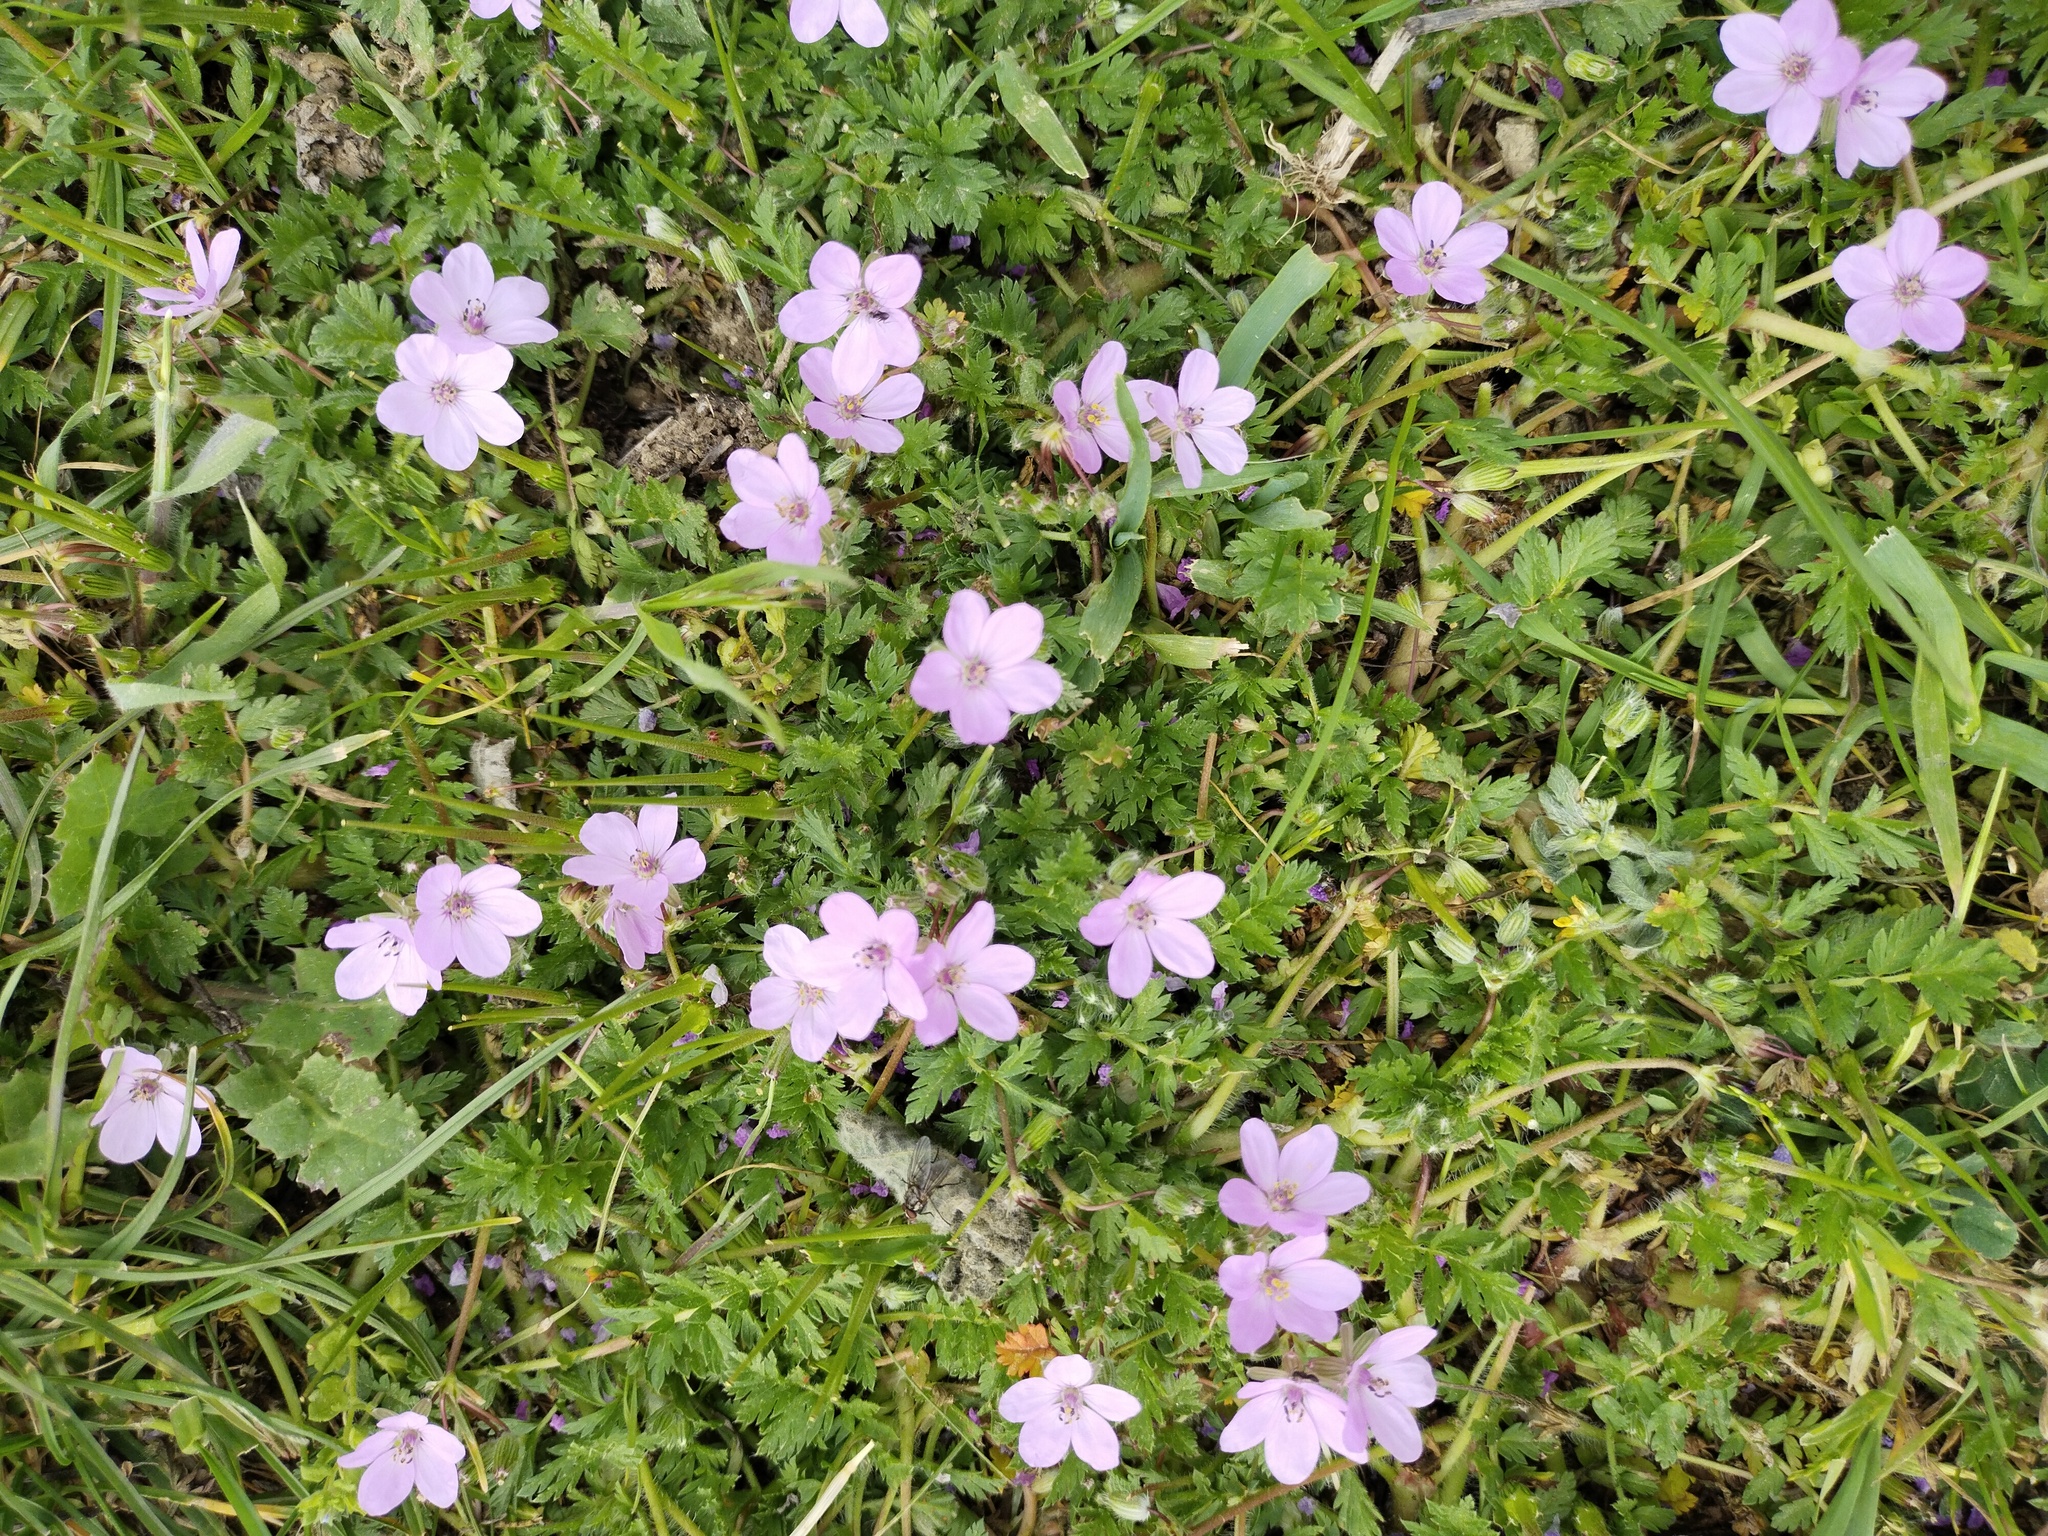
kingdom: Plantae
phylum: Tracheophyta
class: Magnoliopsida
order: Geraniales
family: Geraniaceae
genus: Erodium
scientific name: Erodium cicutarium
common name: Common stork's-bill
